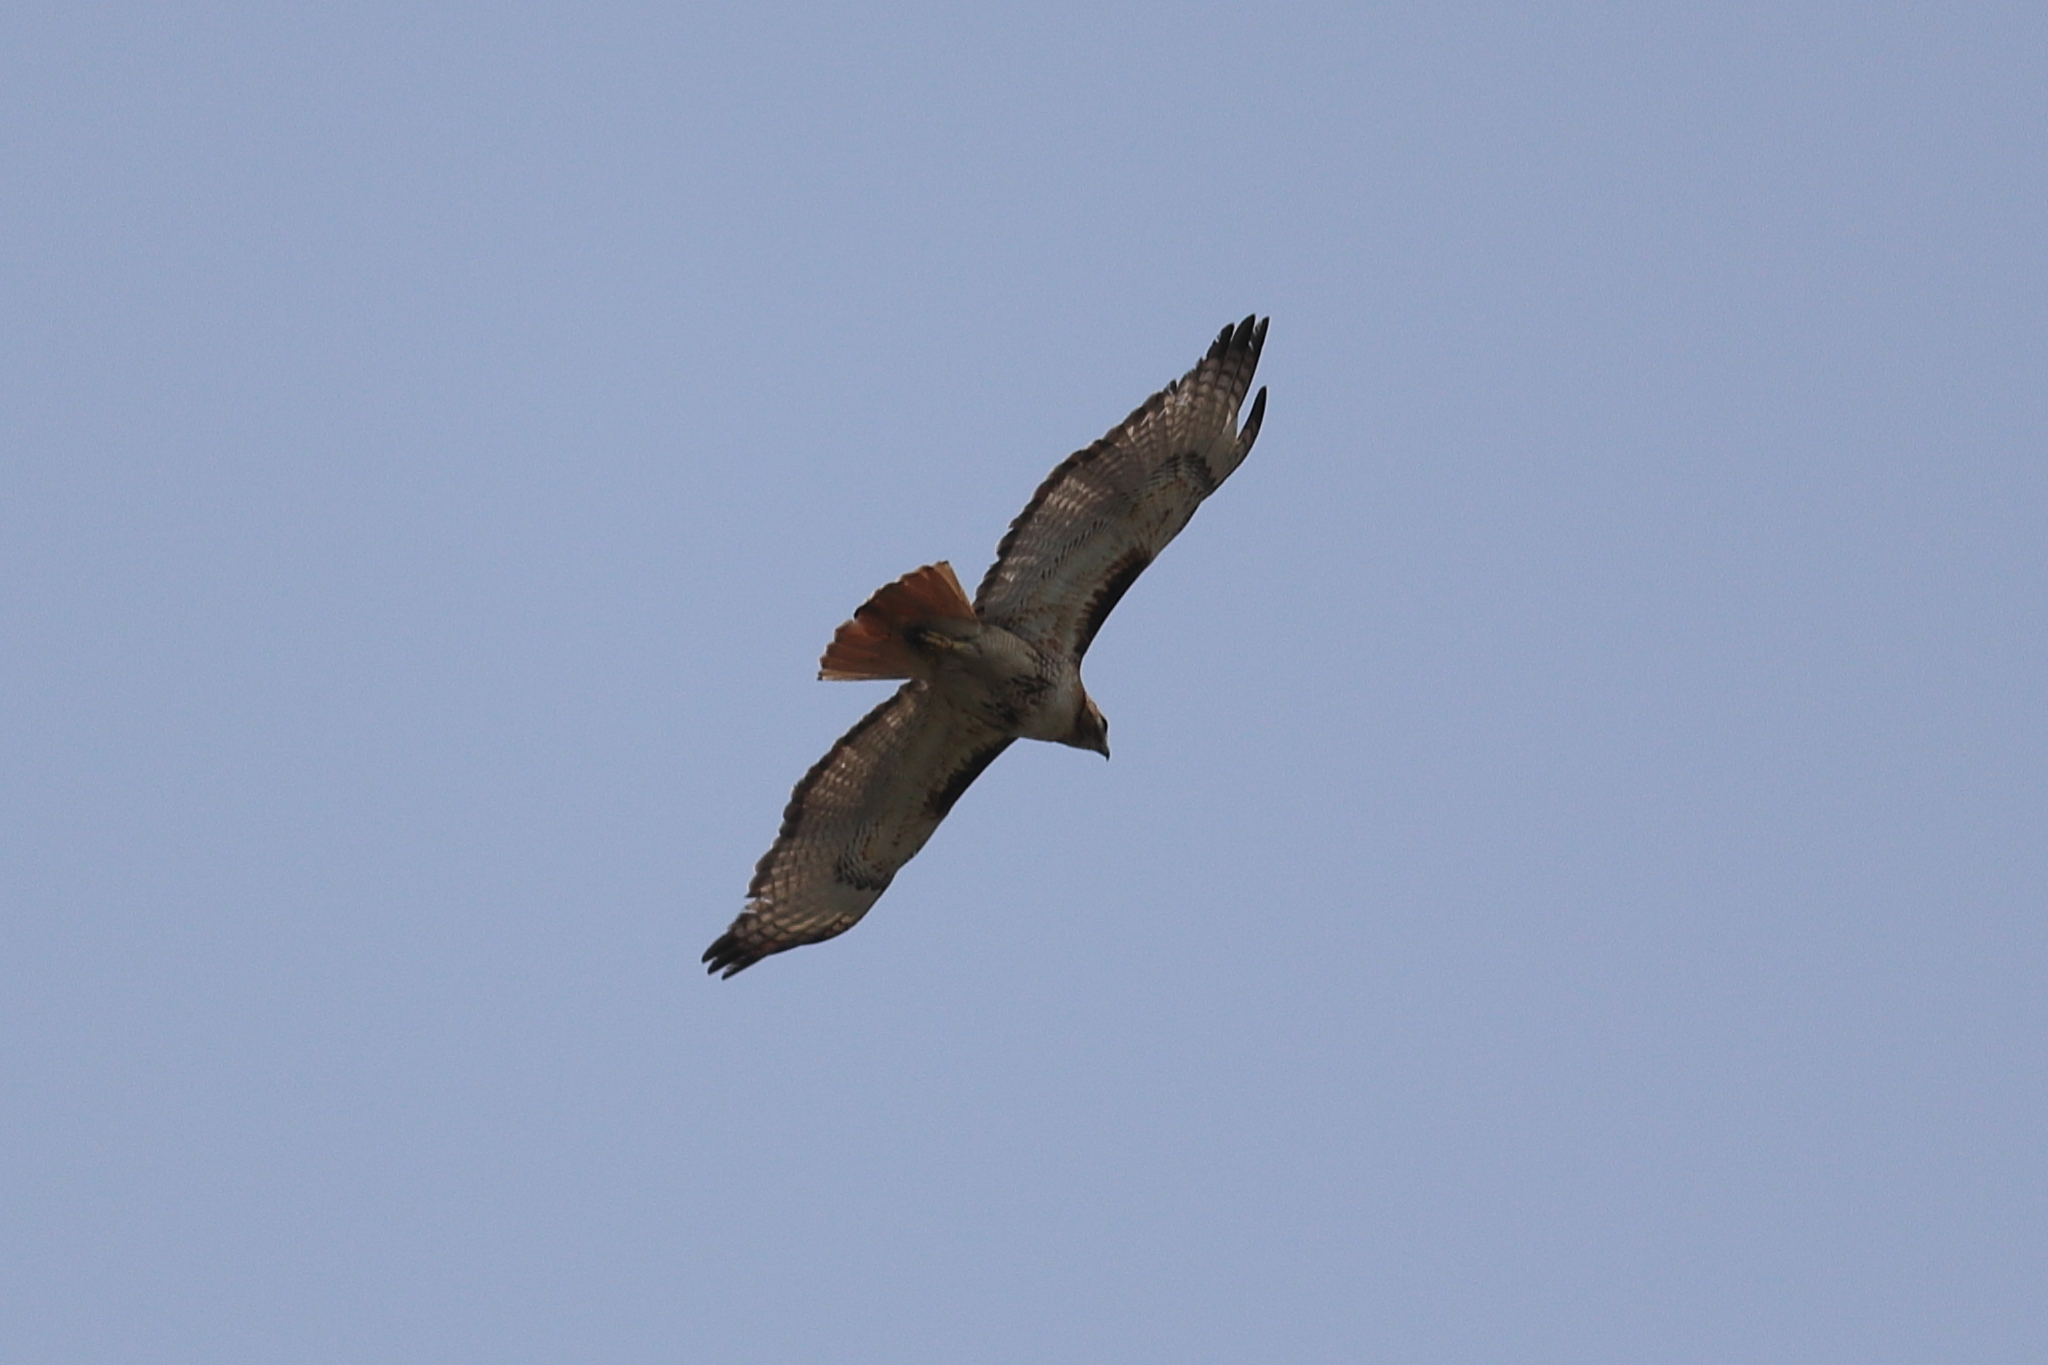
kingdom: Animalia
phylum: Chordata
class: Aves
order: Accipitriformes
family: Accipitridae
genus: Buteo
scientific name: Buteo jamaicensis
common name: Red-tailed hawk
